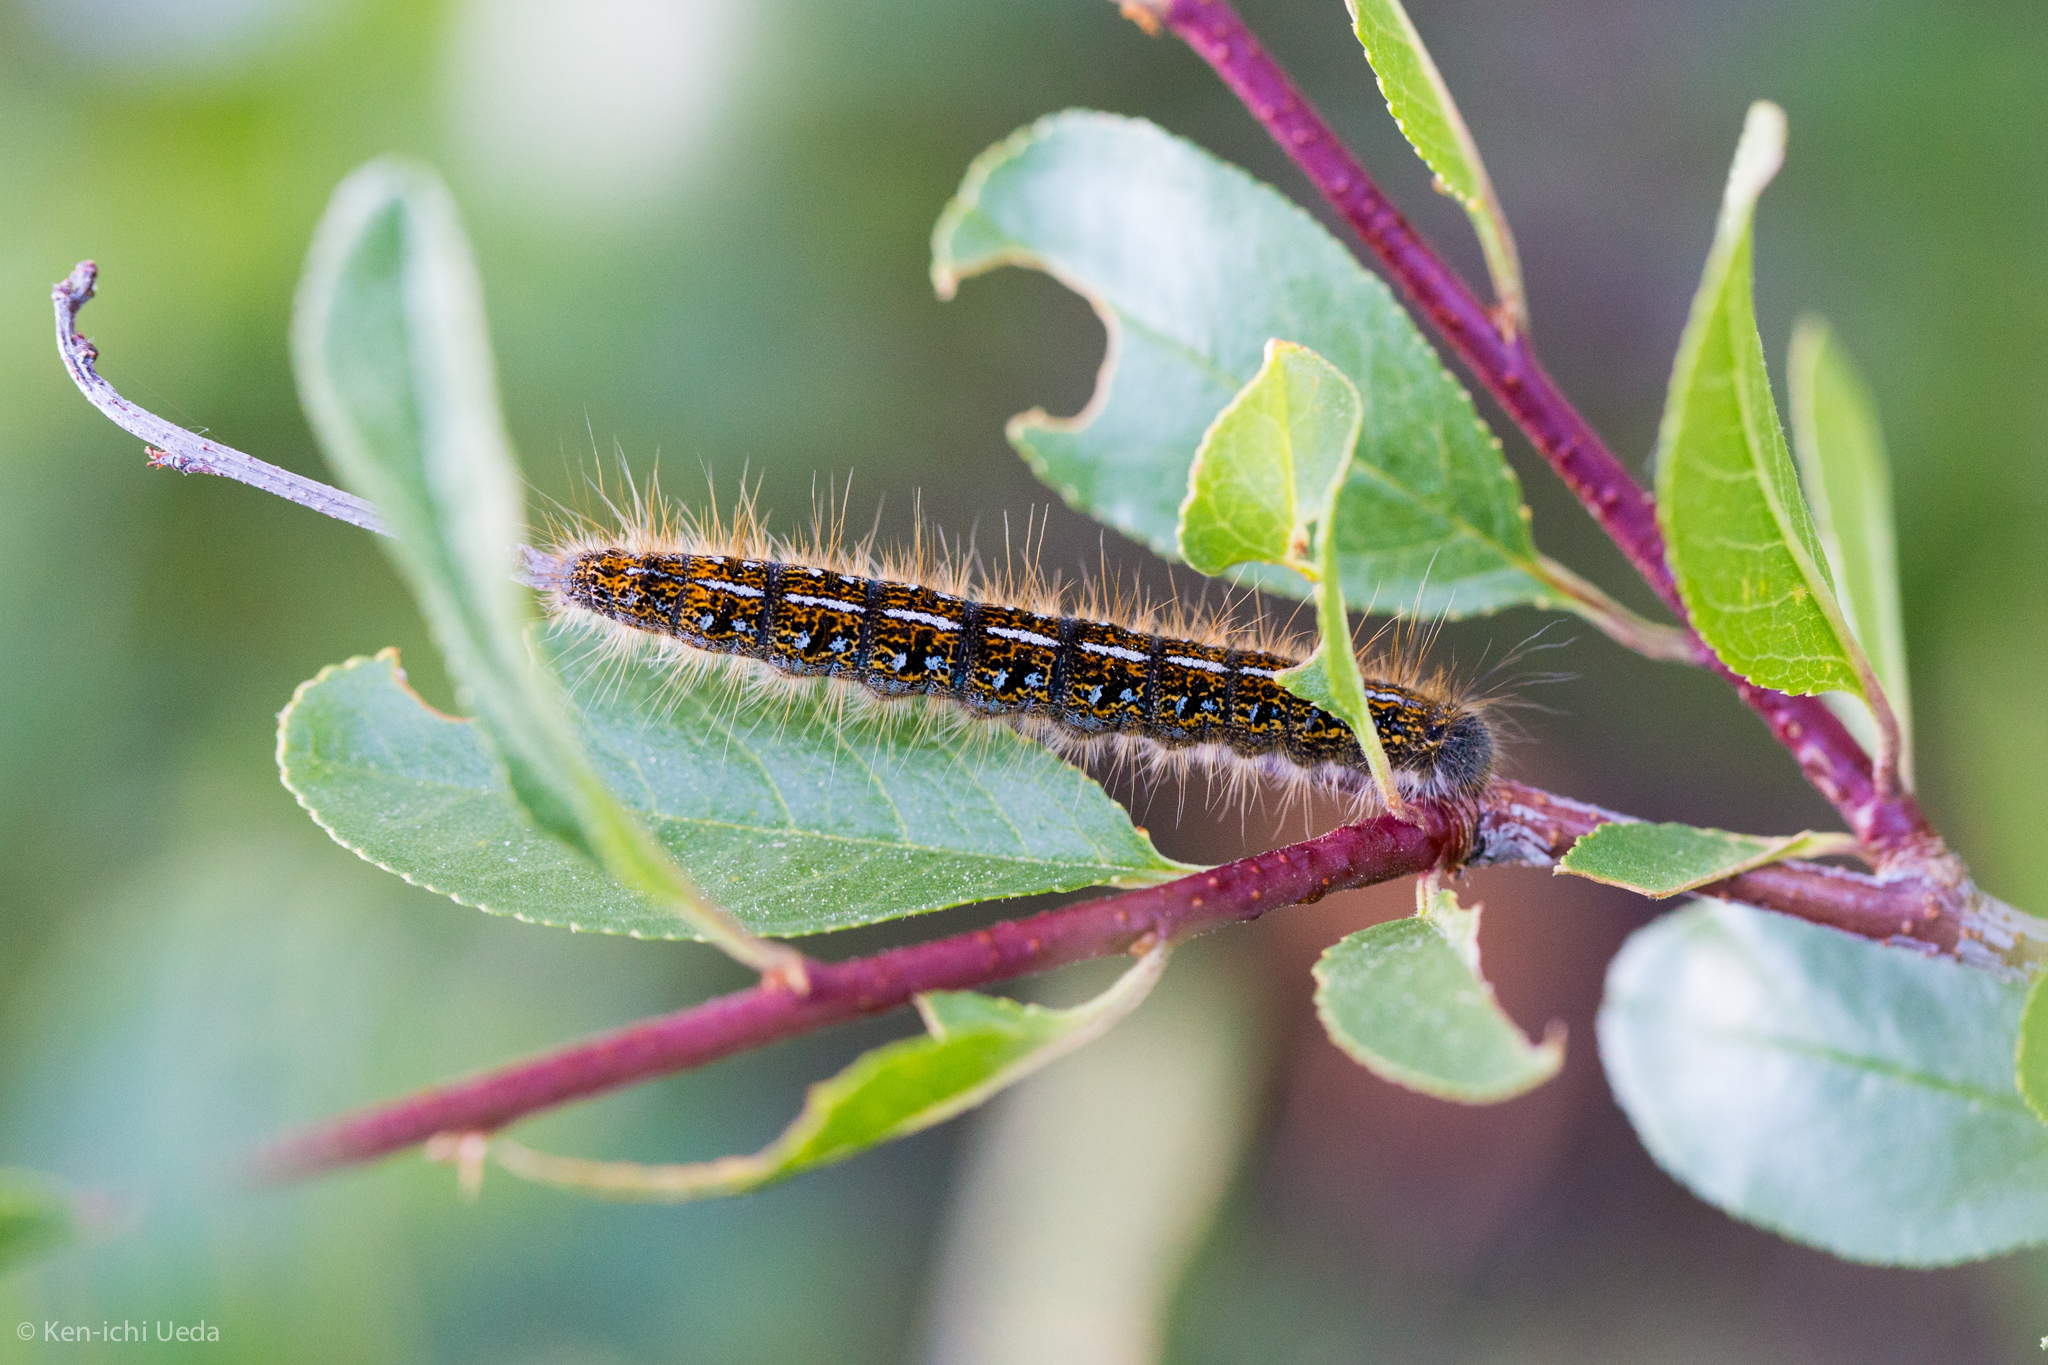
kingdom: Animalia
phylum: Arthropoda
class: Insecta
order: Lepidoptera
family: Lasiocampidae
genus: Malacosoma
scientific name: Malacosoma californica
